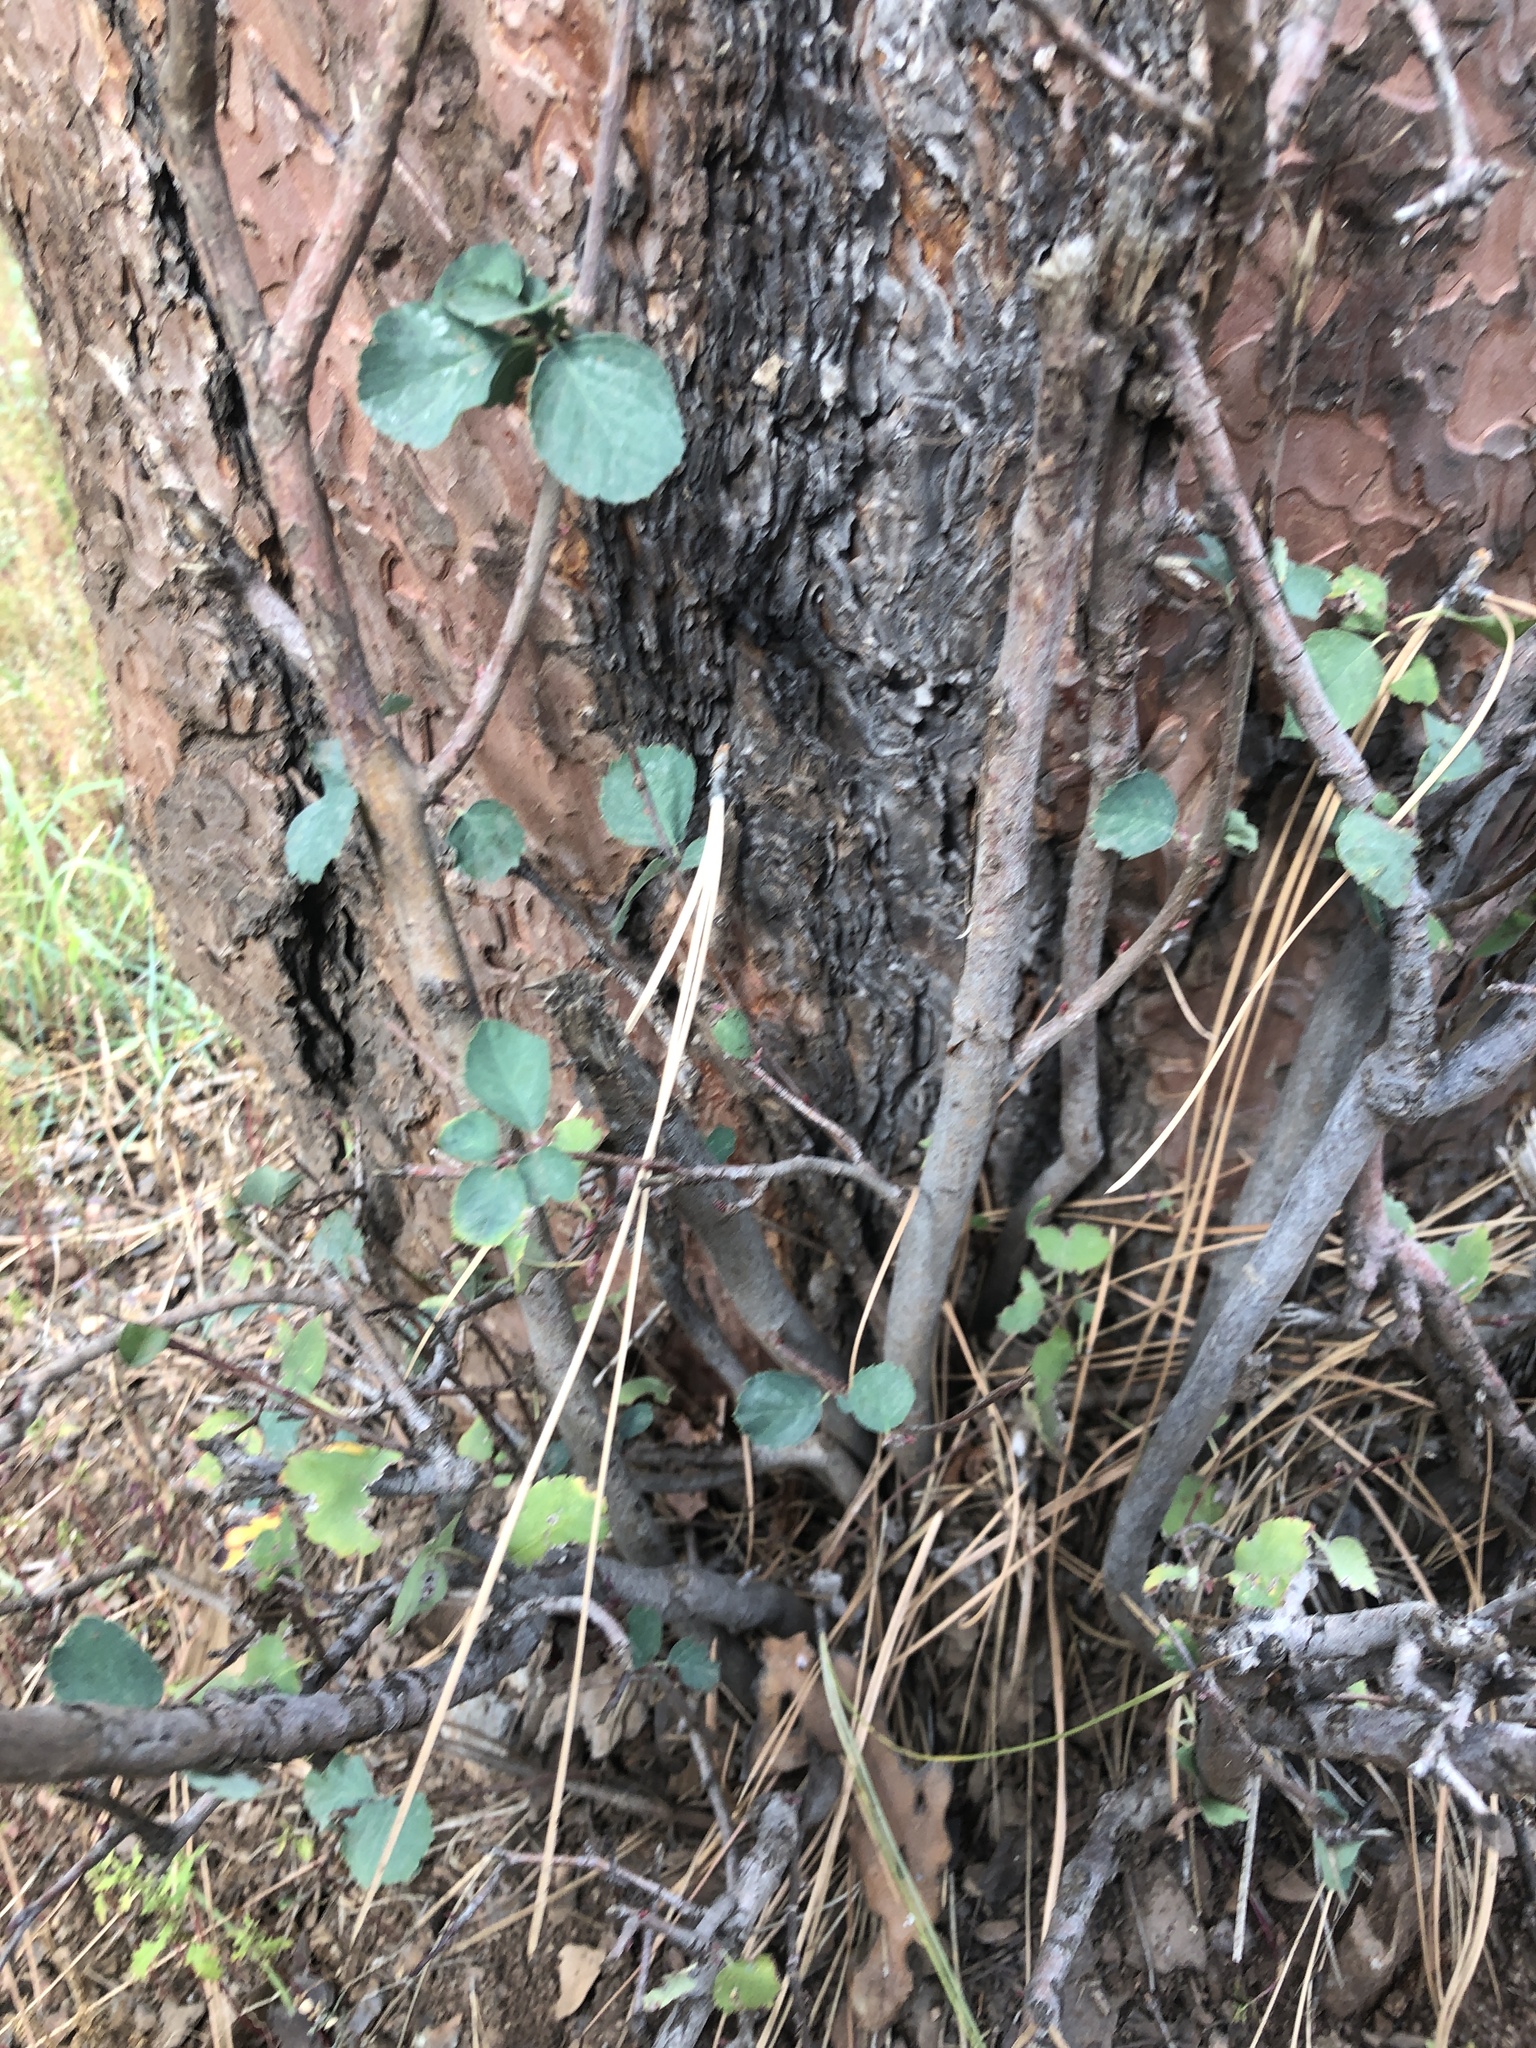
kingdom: Plantae
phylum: Tracheophyta
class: Magnoliopsida
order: Rosales
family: Rosaceae
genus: Amelanchier
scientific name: Amelanchier utahensis
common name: Utah serviceberry
